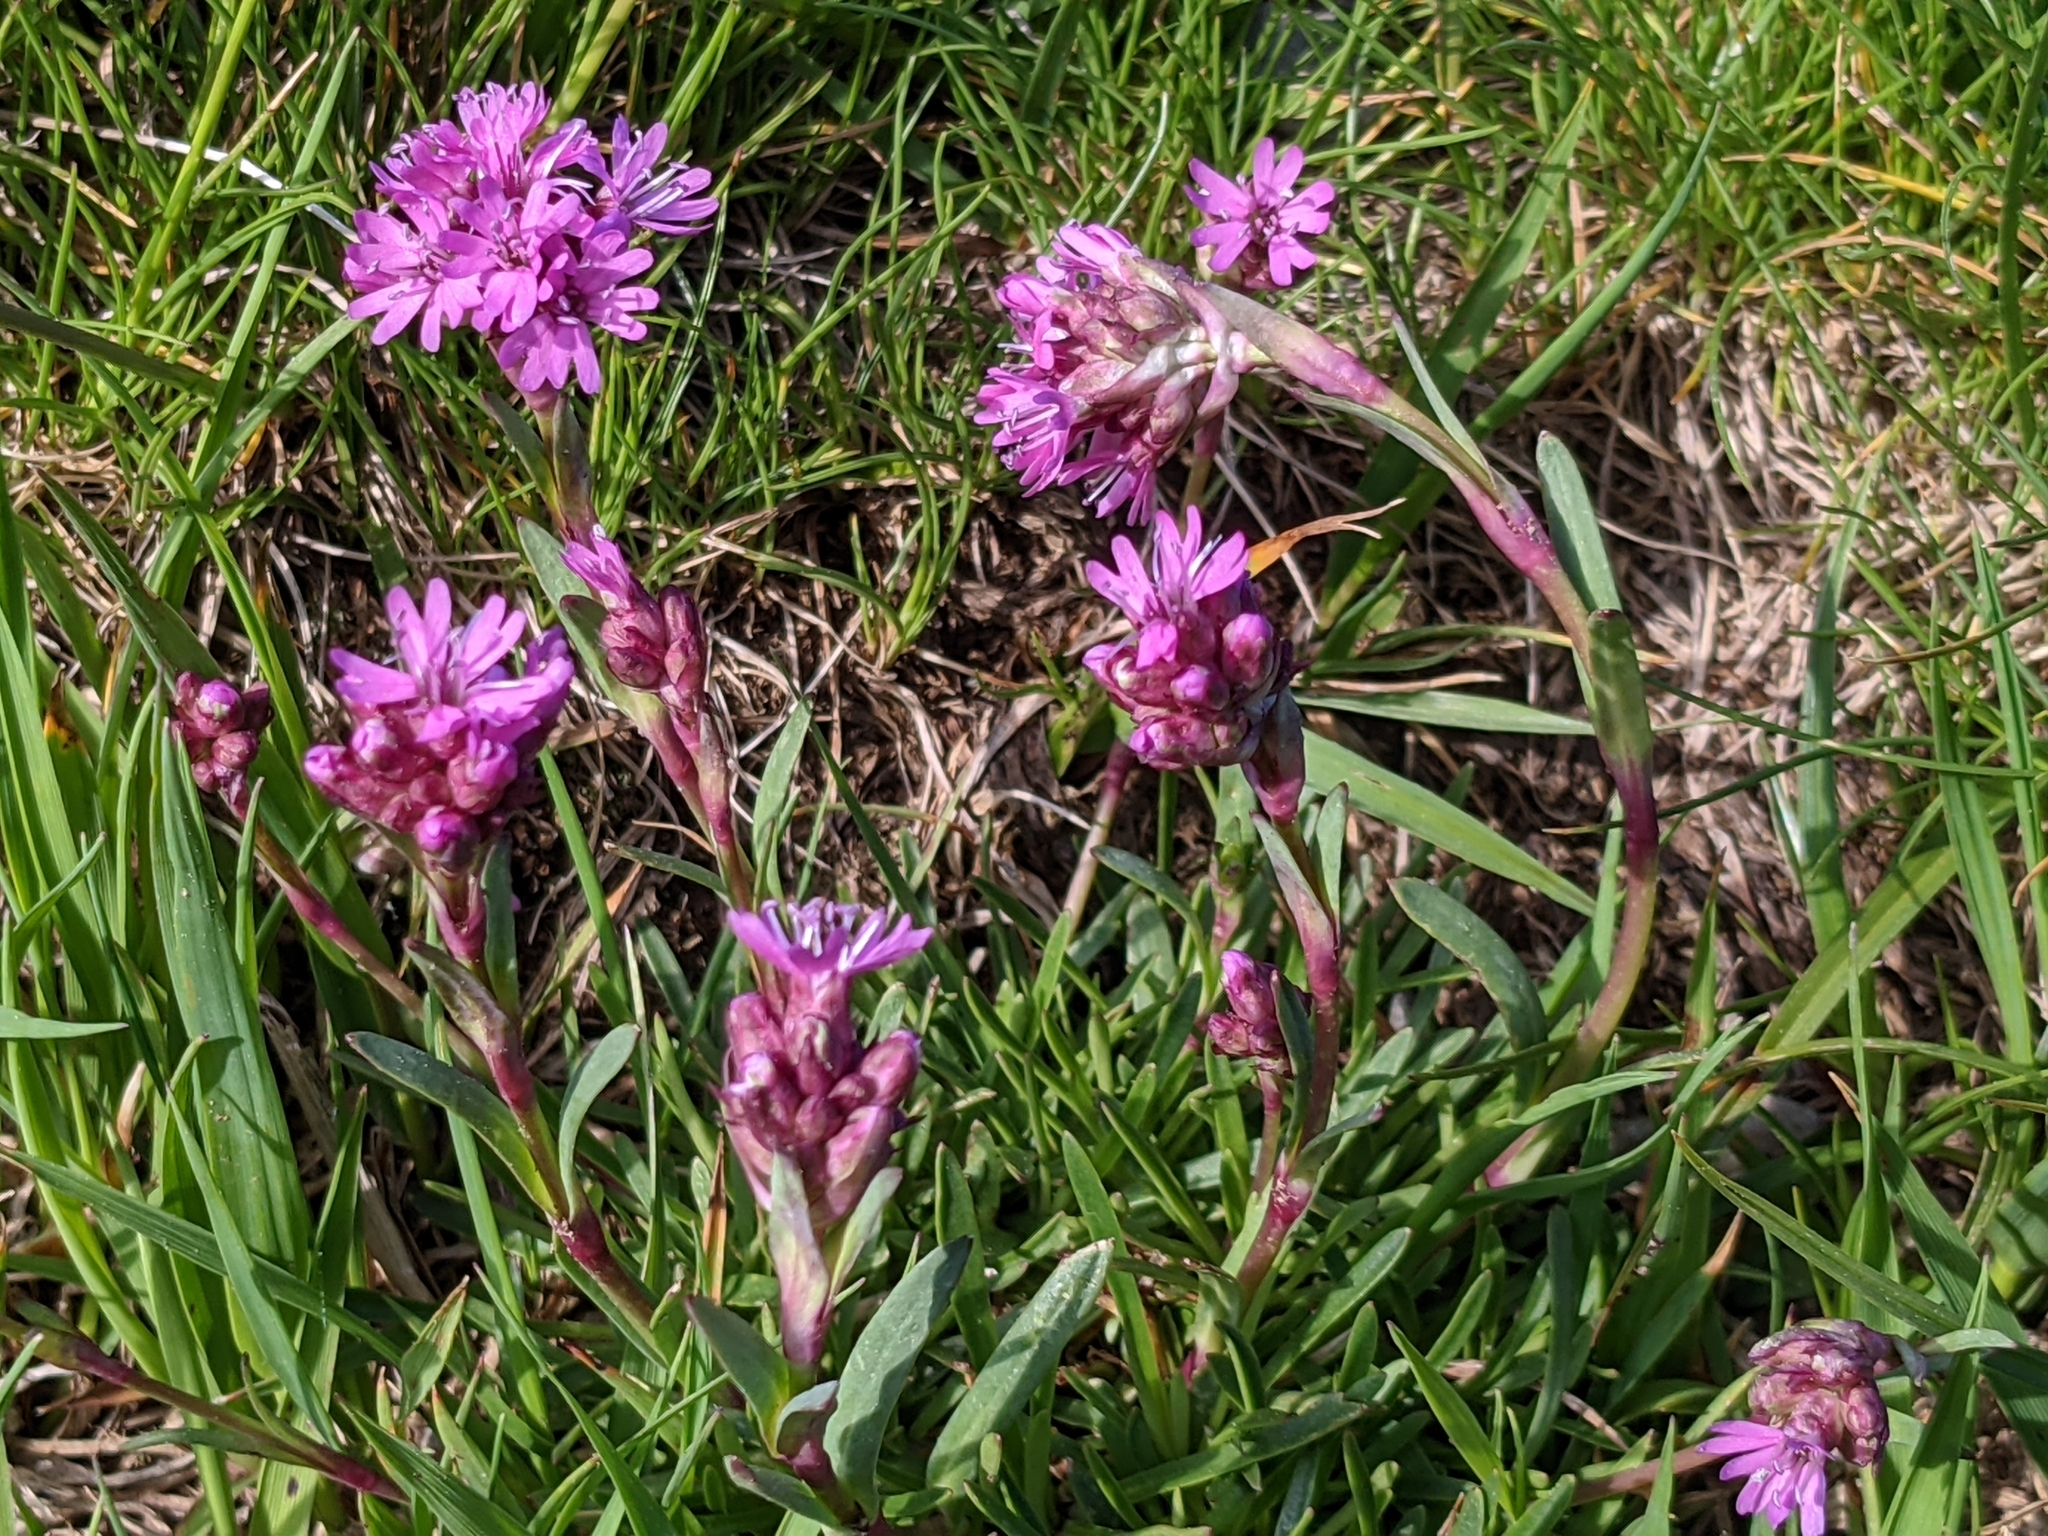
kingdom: Plantae
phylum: Tracheophyta
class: Magnoliopsida
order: Caryophyllales
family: Caryophyllaceae
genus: Viscaria
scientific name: Viscaria alpina
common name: Alpine campion
